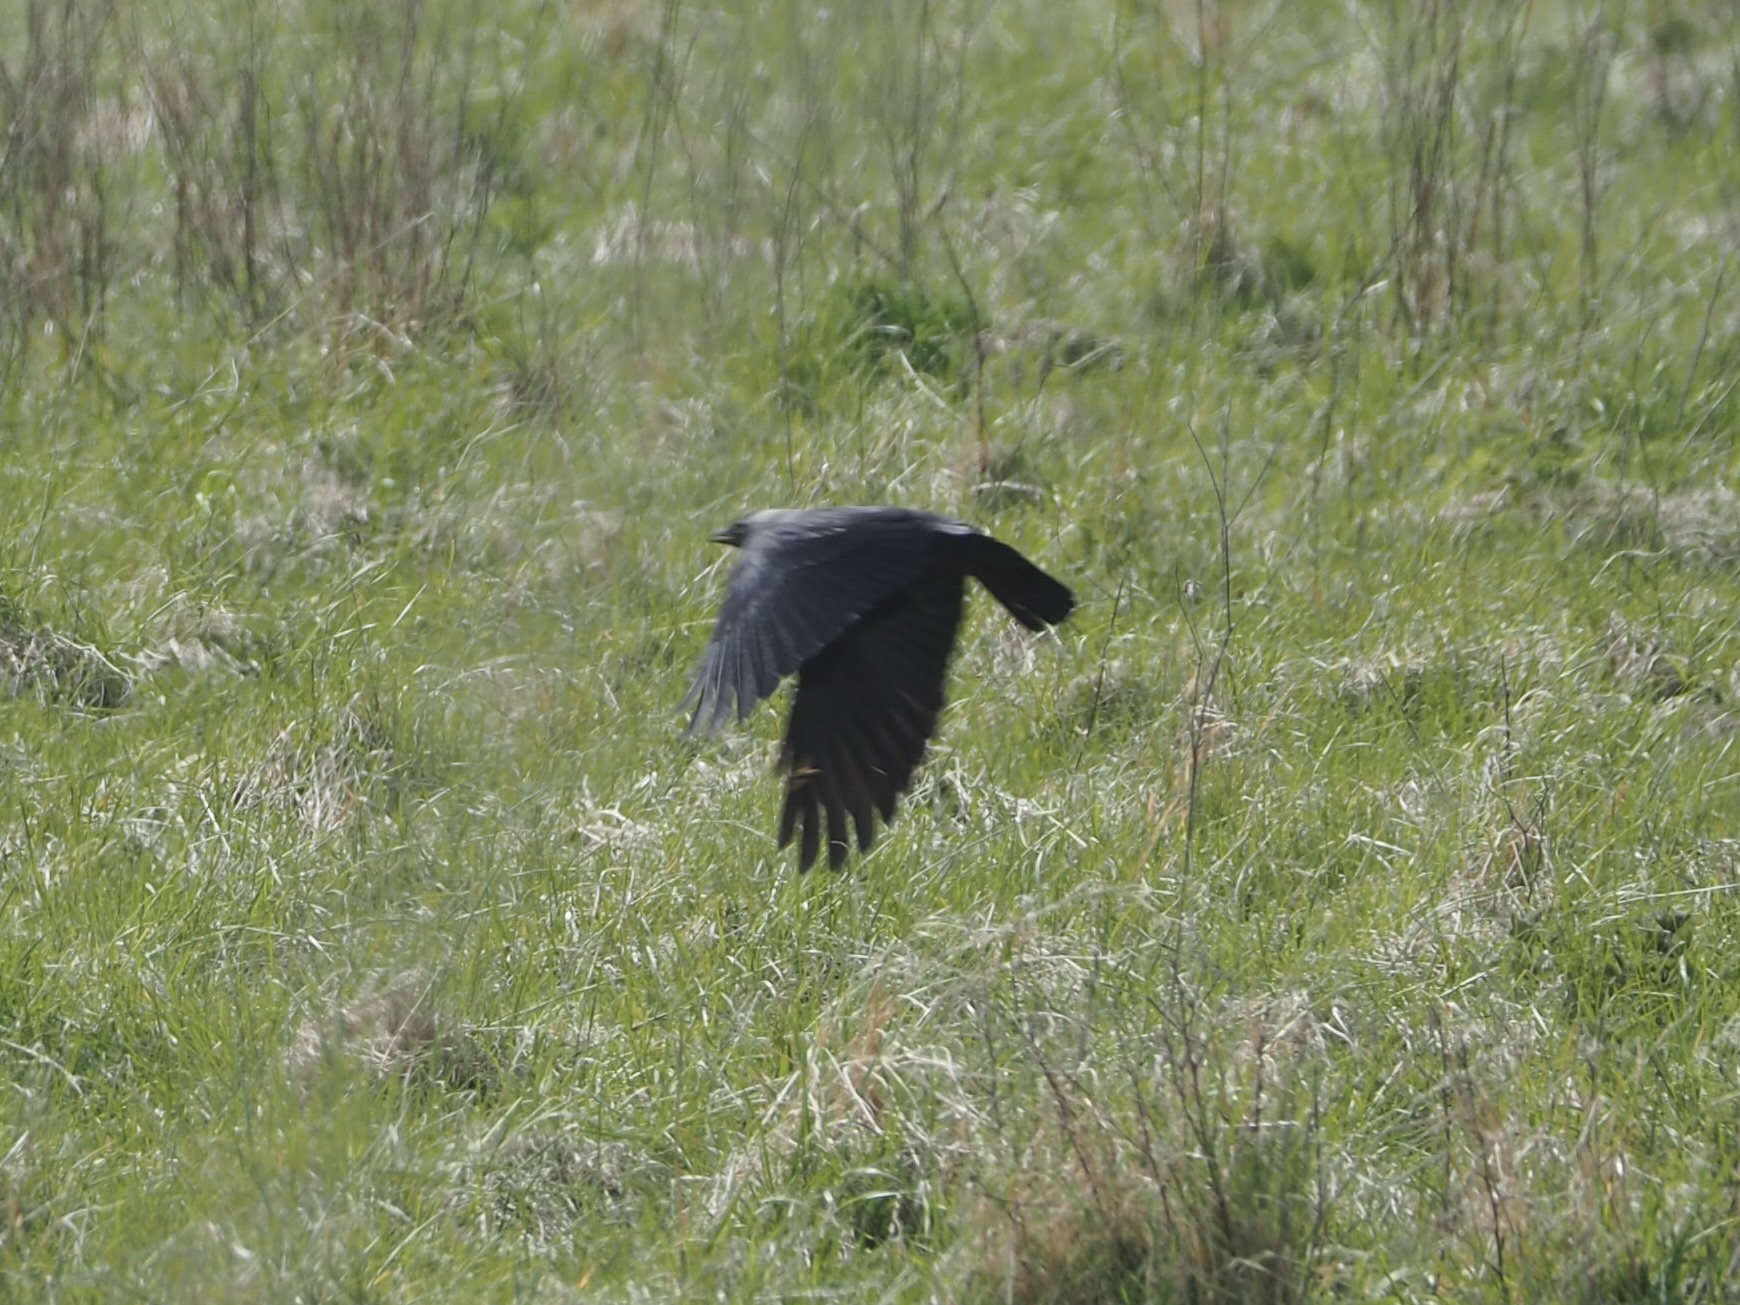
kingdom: Animalia
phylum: Chordata
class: Aves
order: Passeriformes
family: Corvidae
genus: Coloeus
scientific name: Coloeus monedula
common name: Western jackdaw
